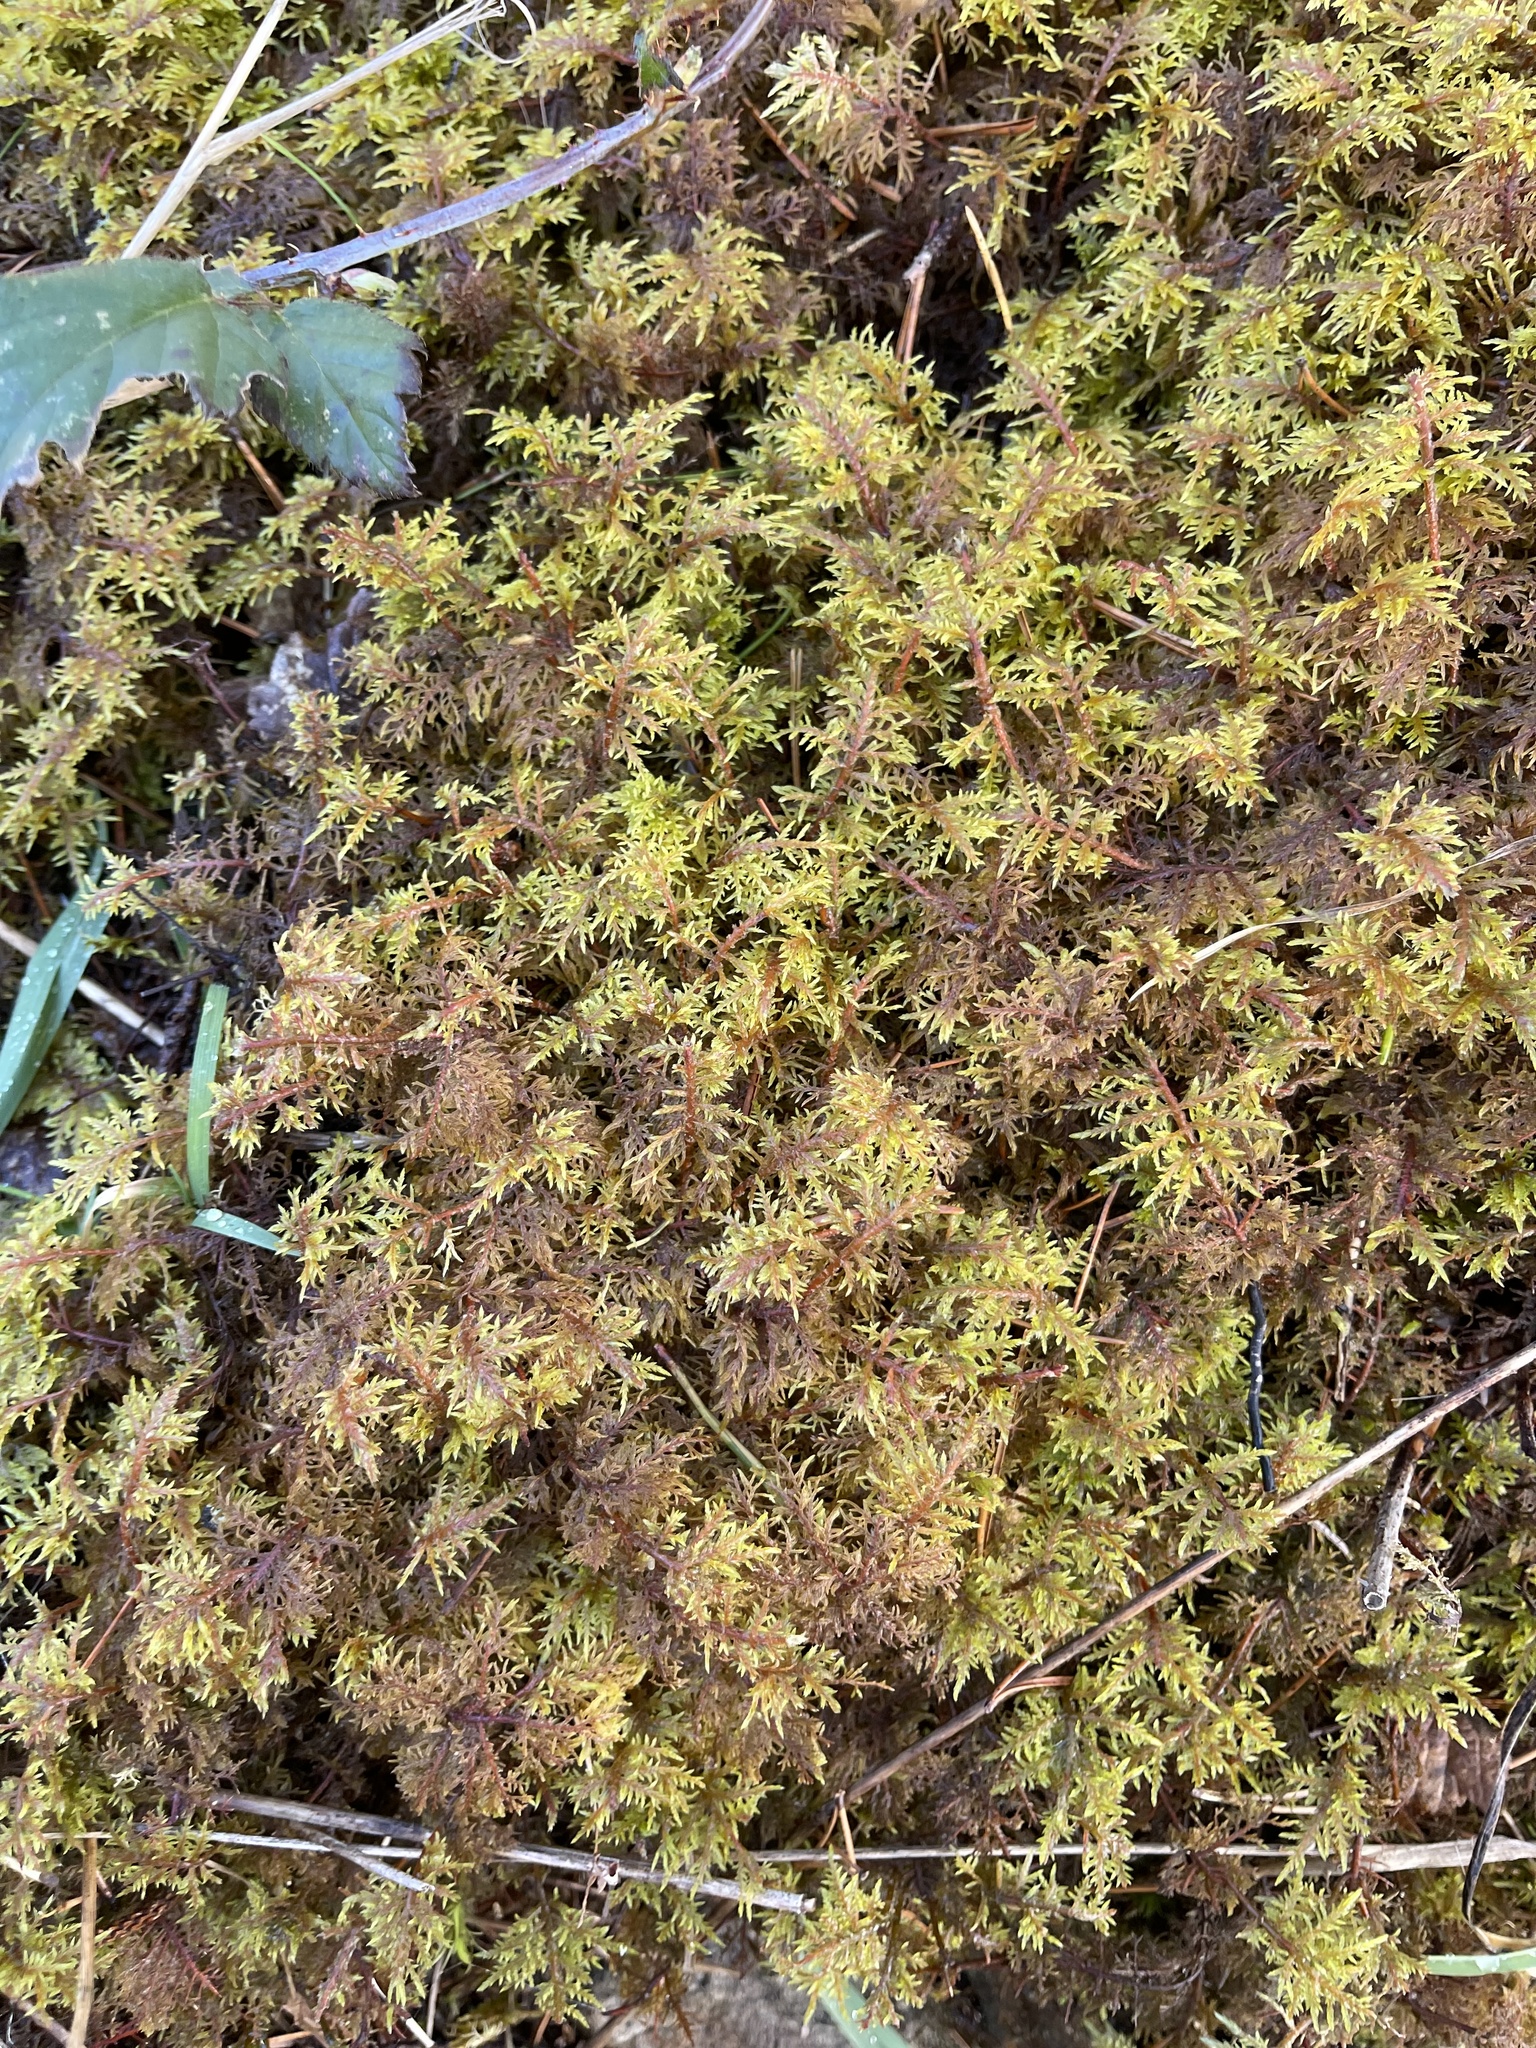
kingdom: Plantae
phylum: Bryophyta
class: Bryopsida
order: Hypnales
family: Hylocomiaceae
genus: Hylocomium
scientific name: Hylocomium splendens
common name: Stairstep moss
